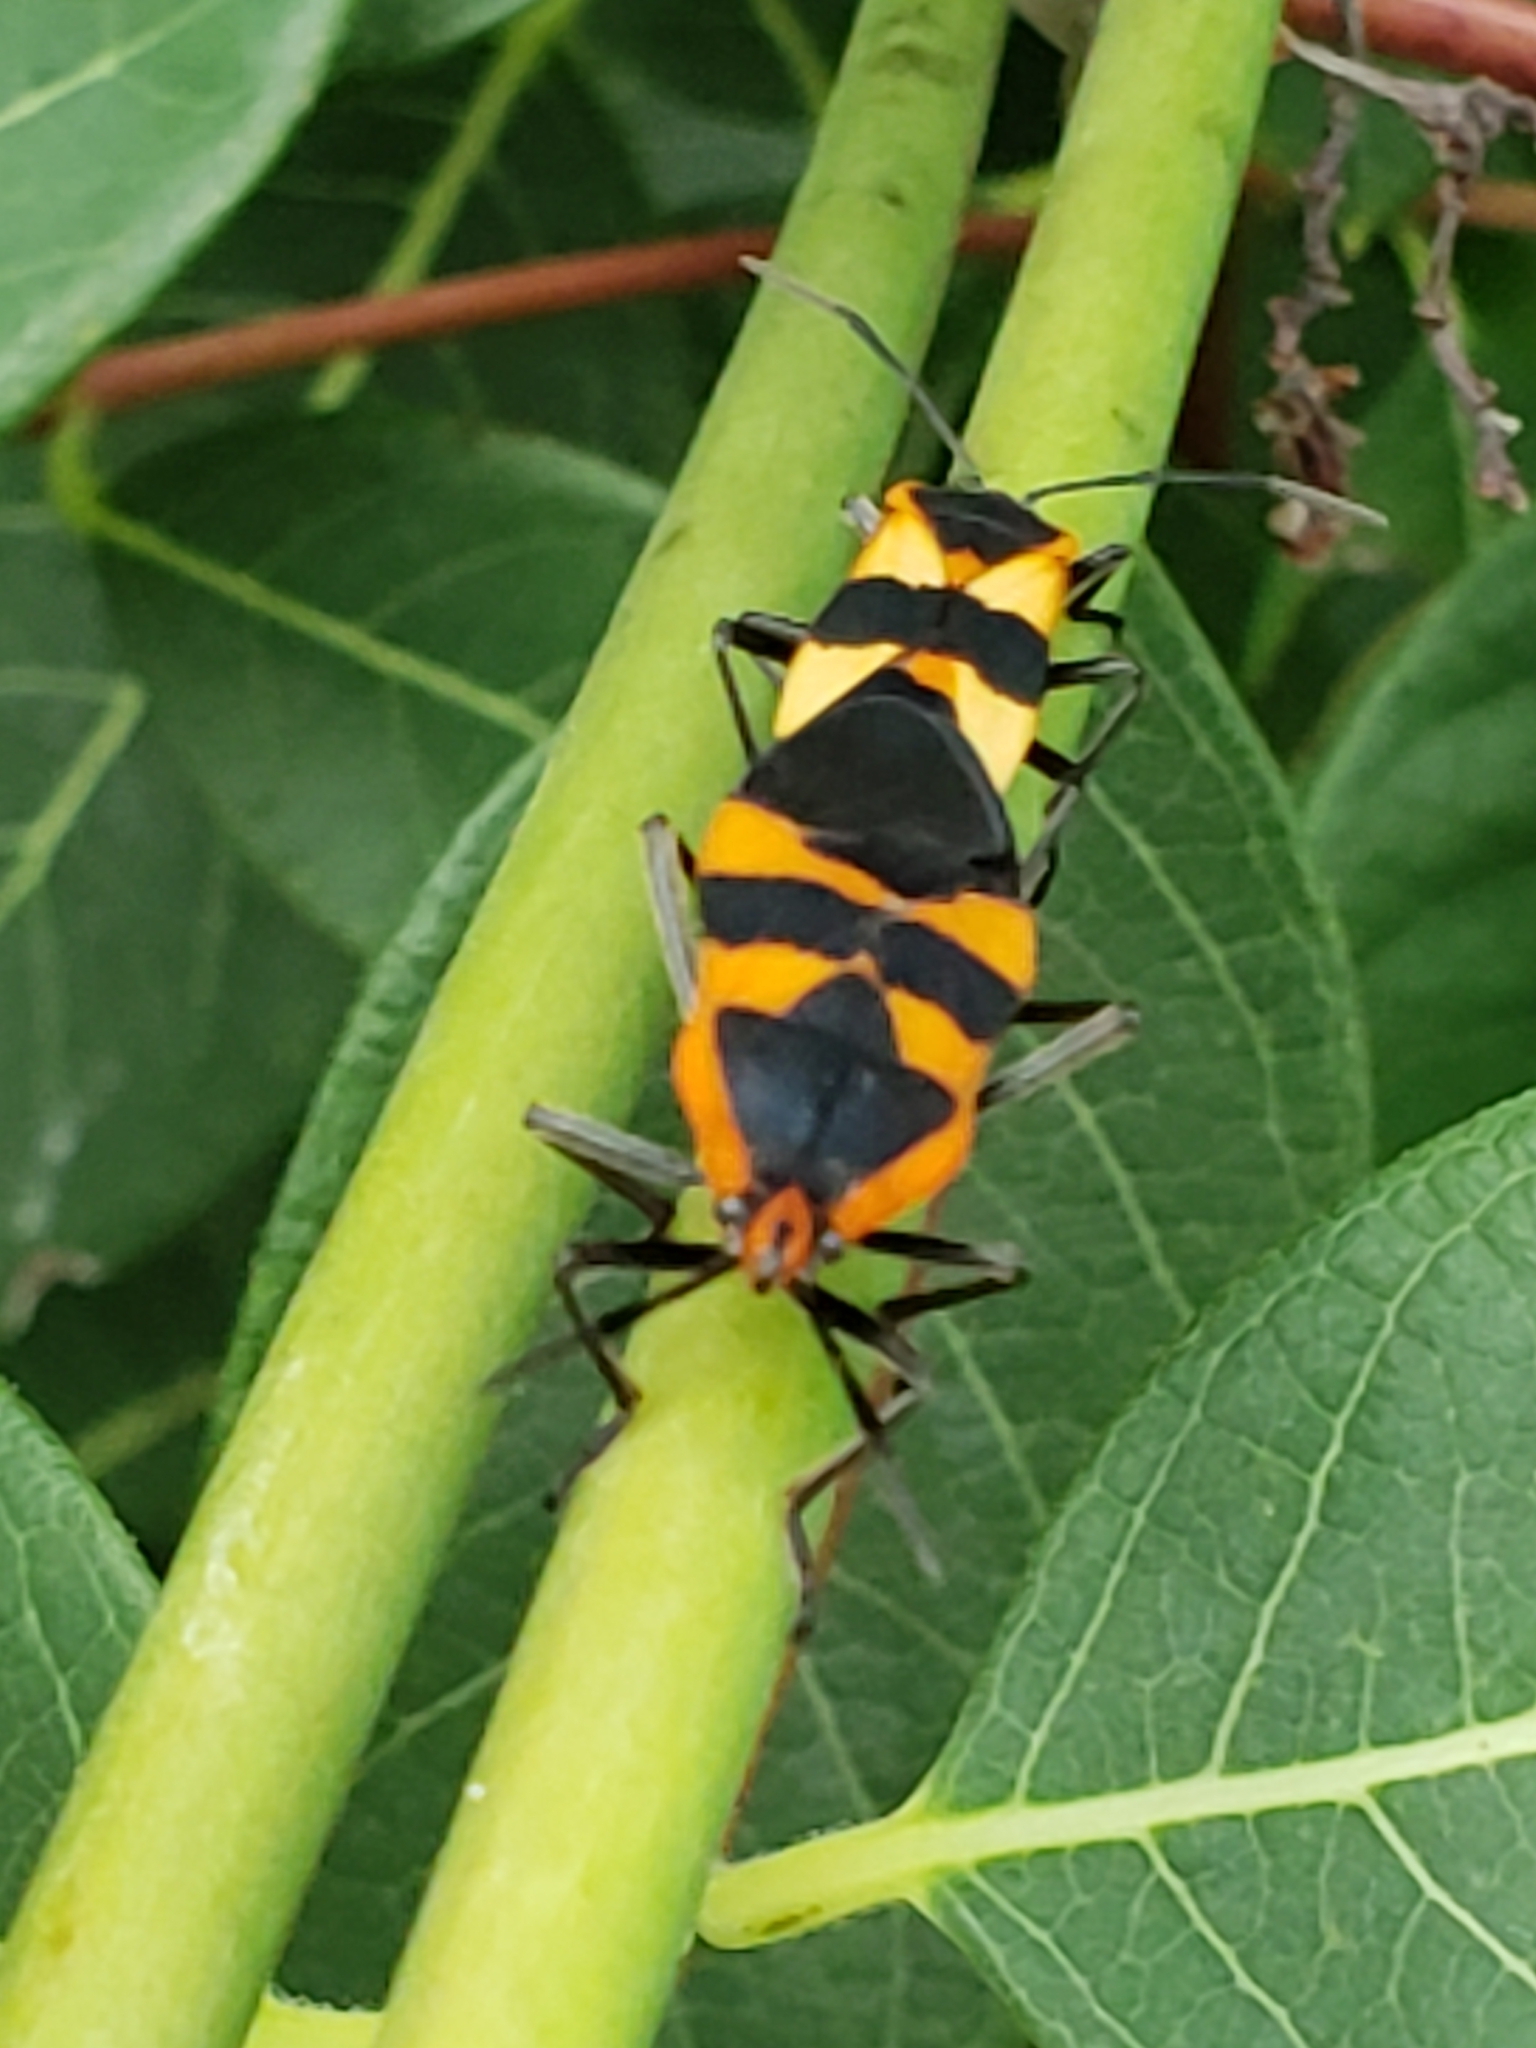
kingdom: Animalia
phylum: Arthropoda
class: Insecta
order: Hemiptera
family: Lygaeidae
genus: Oncopeltus
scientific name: Oncopeltus fasciatus
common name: Large milkweed bug
